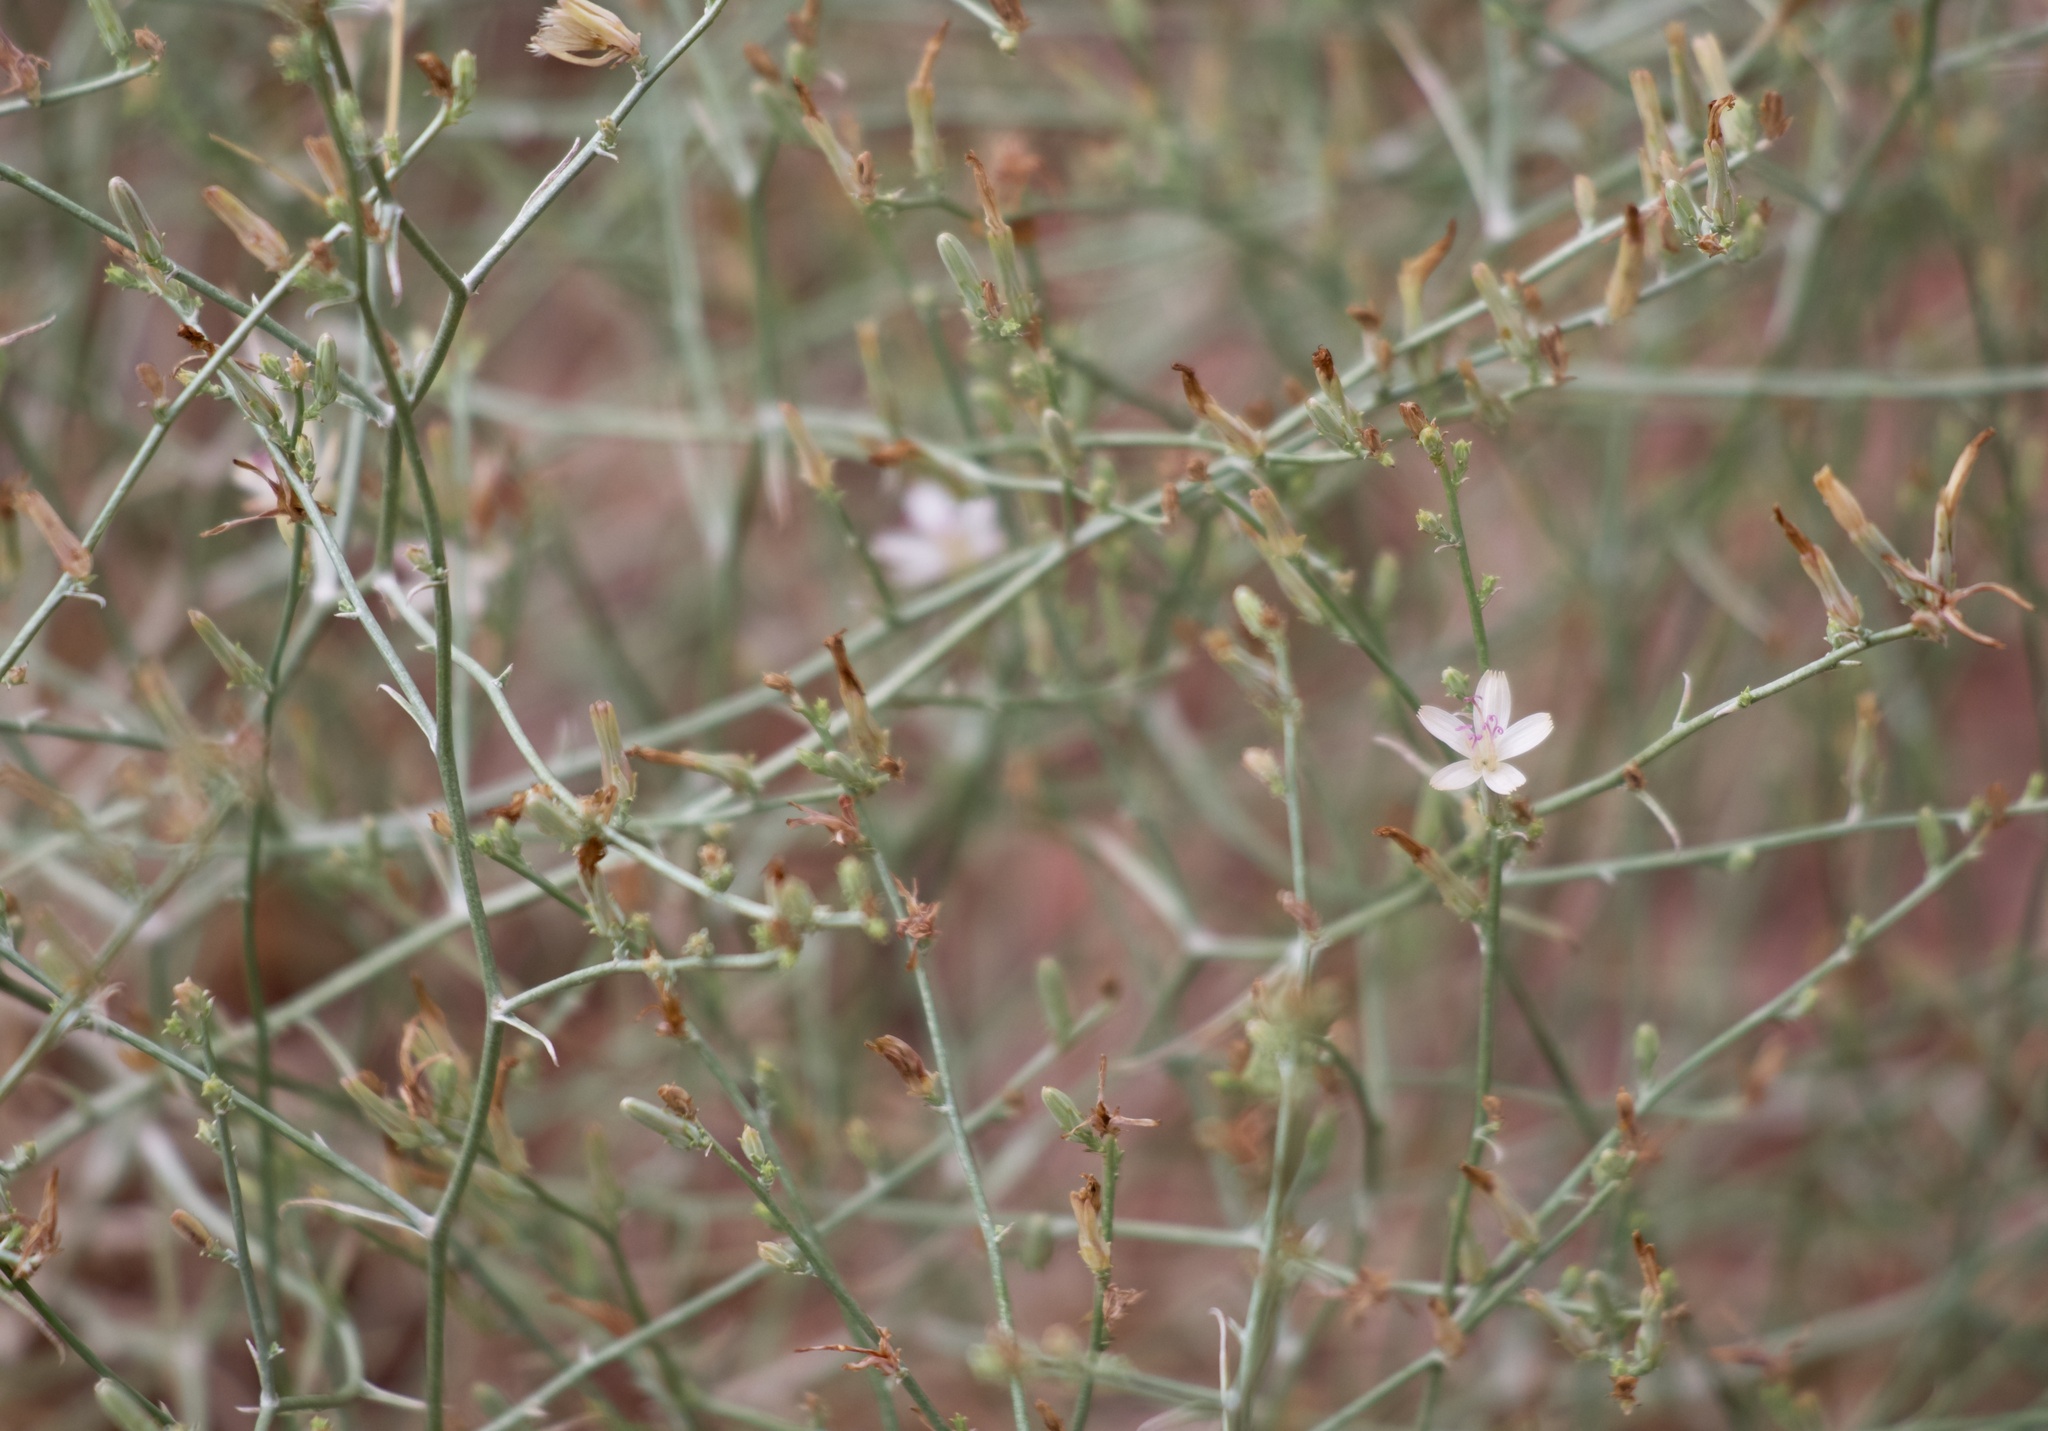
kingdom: Plantae
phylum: Tracheophyta
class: Magnoliopsida
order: Asterales
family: Asteraceae
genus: Stephanomeria
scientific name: Stephanomeria pauciflora
